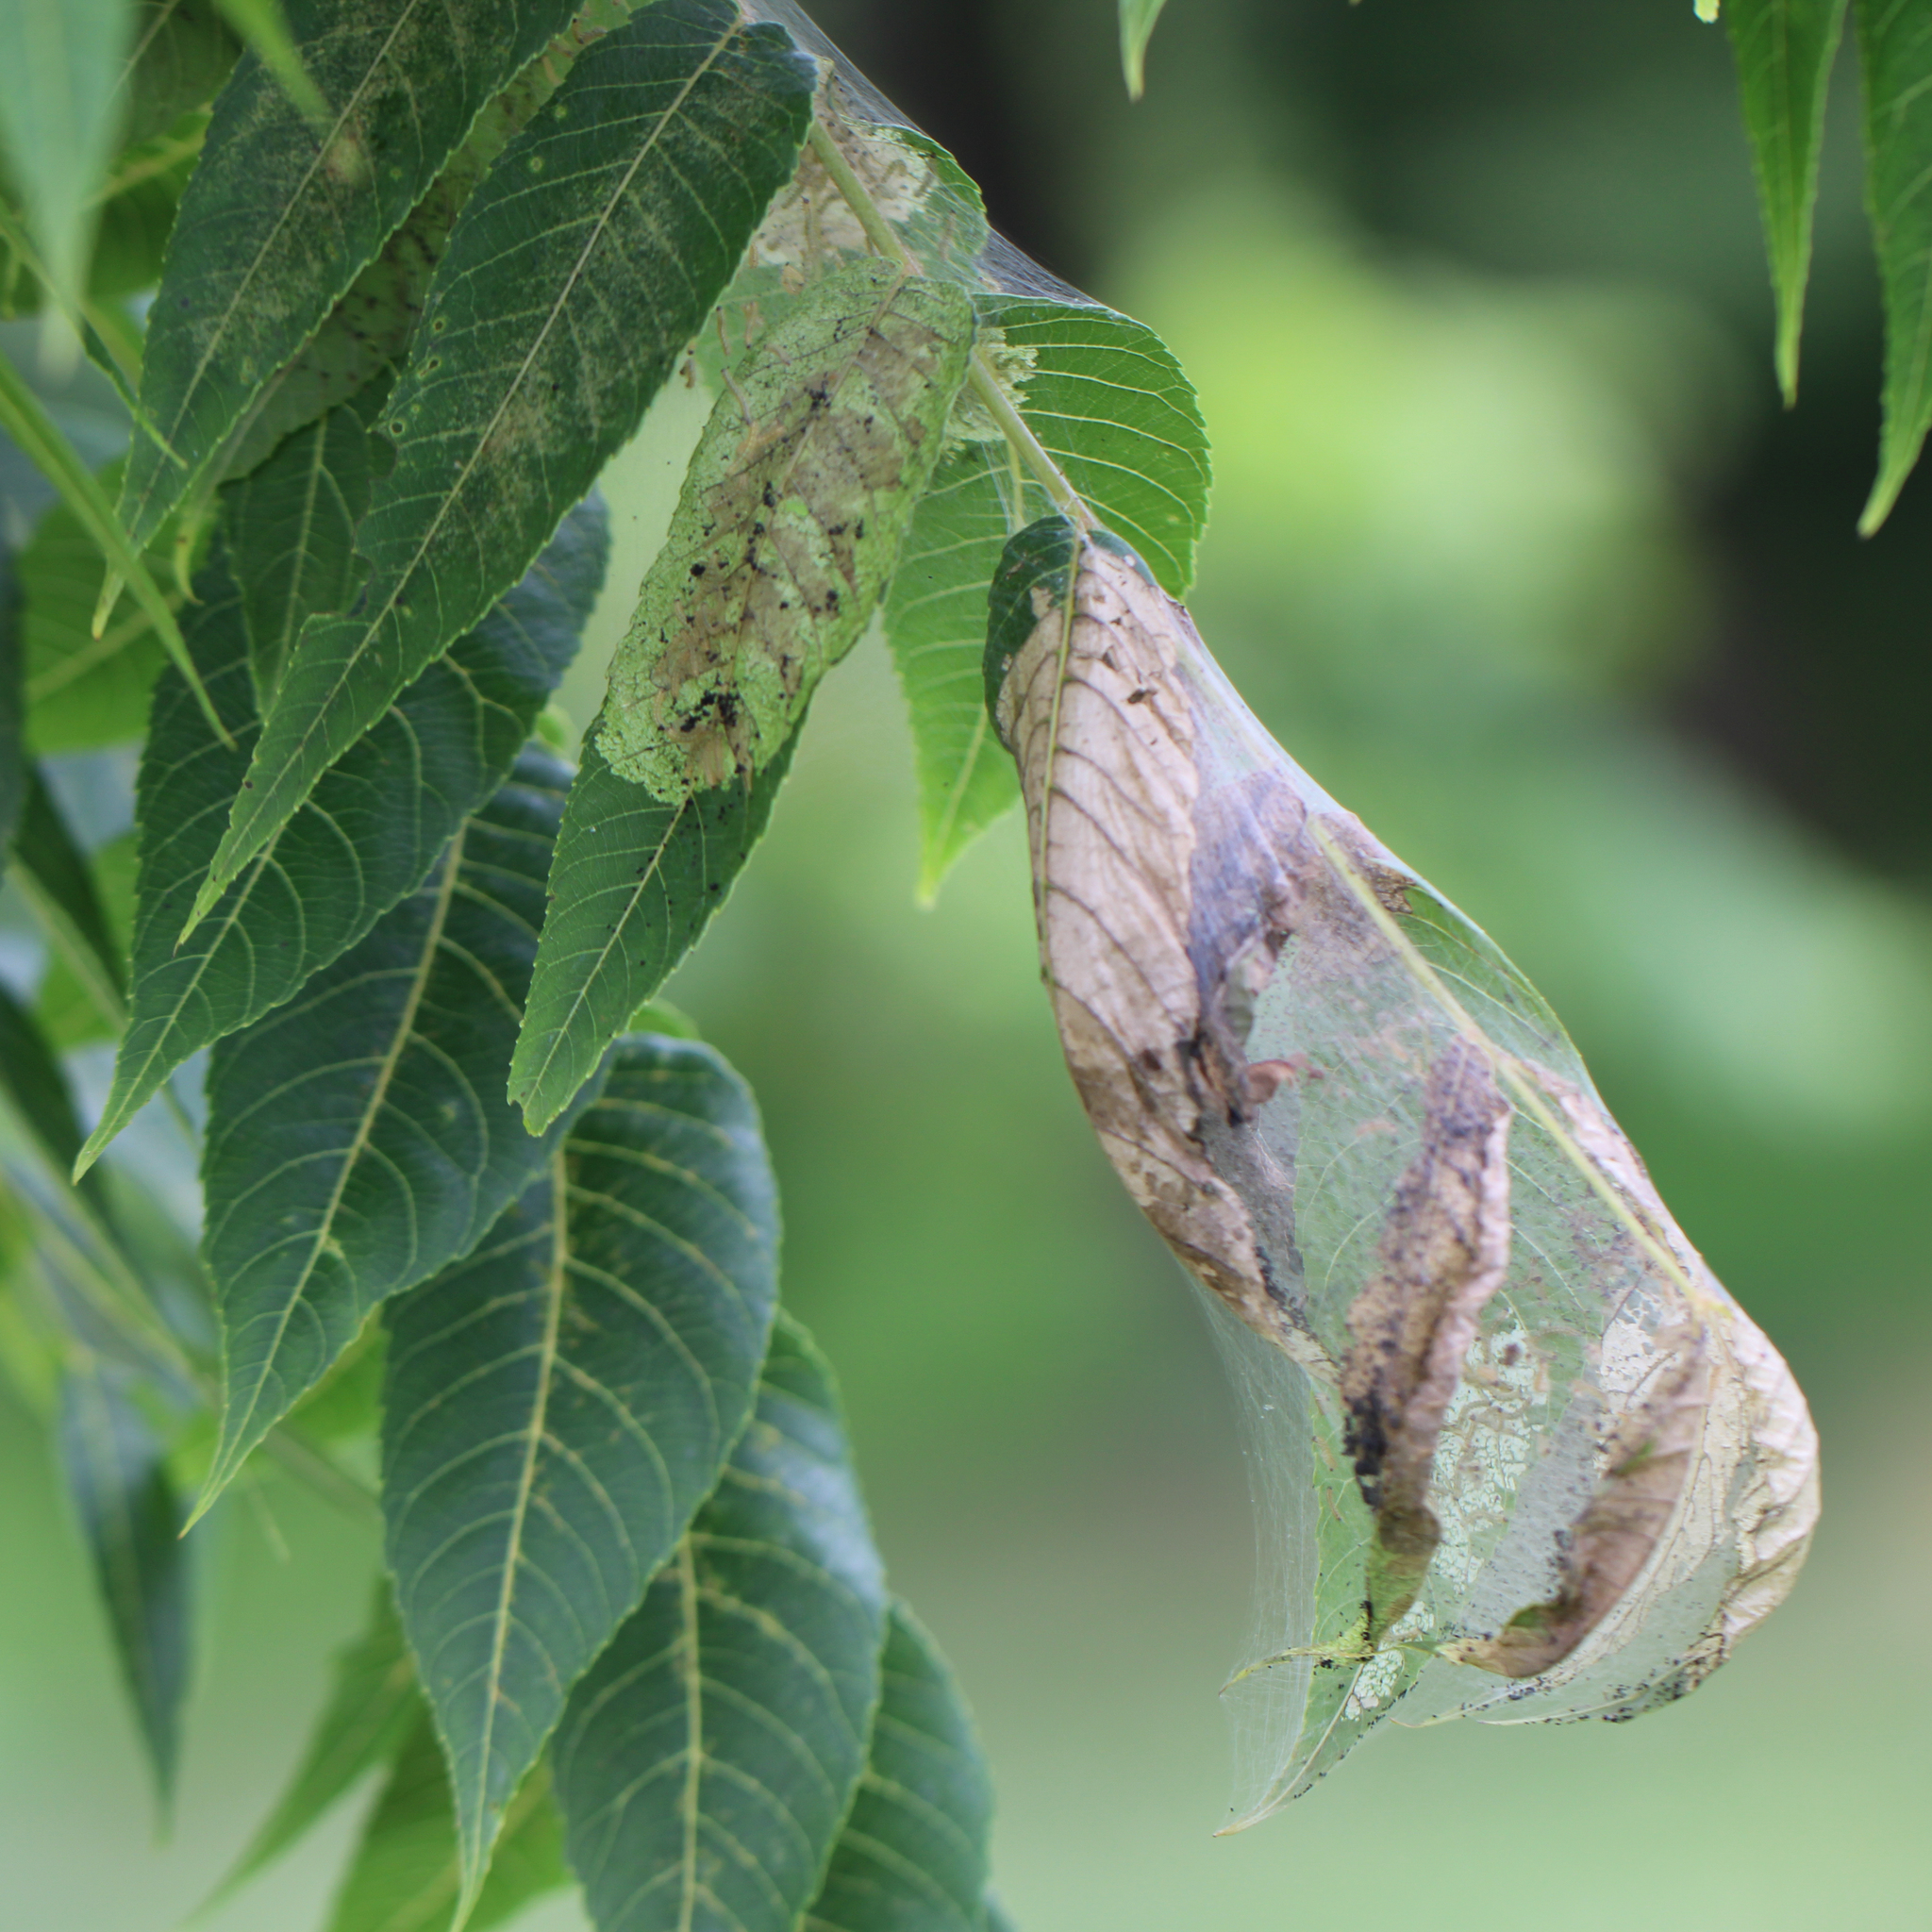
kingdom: Animalia
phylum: Arthropoda
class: Insecta
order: Lepidoptera
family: Erebidae
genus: Hyphantria
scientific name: Hyphantria cunea
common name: American white moth
